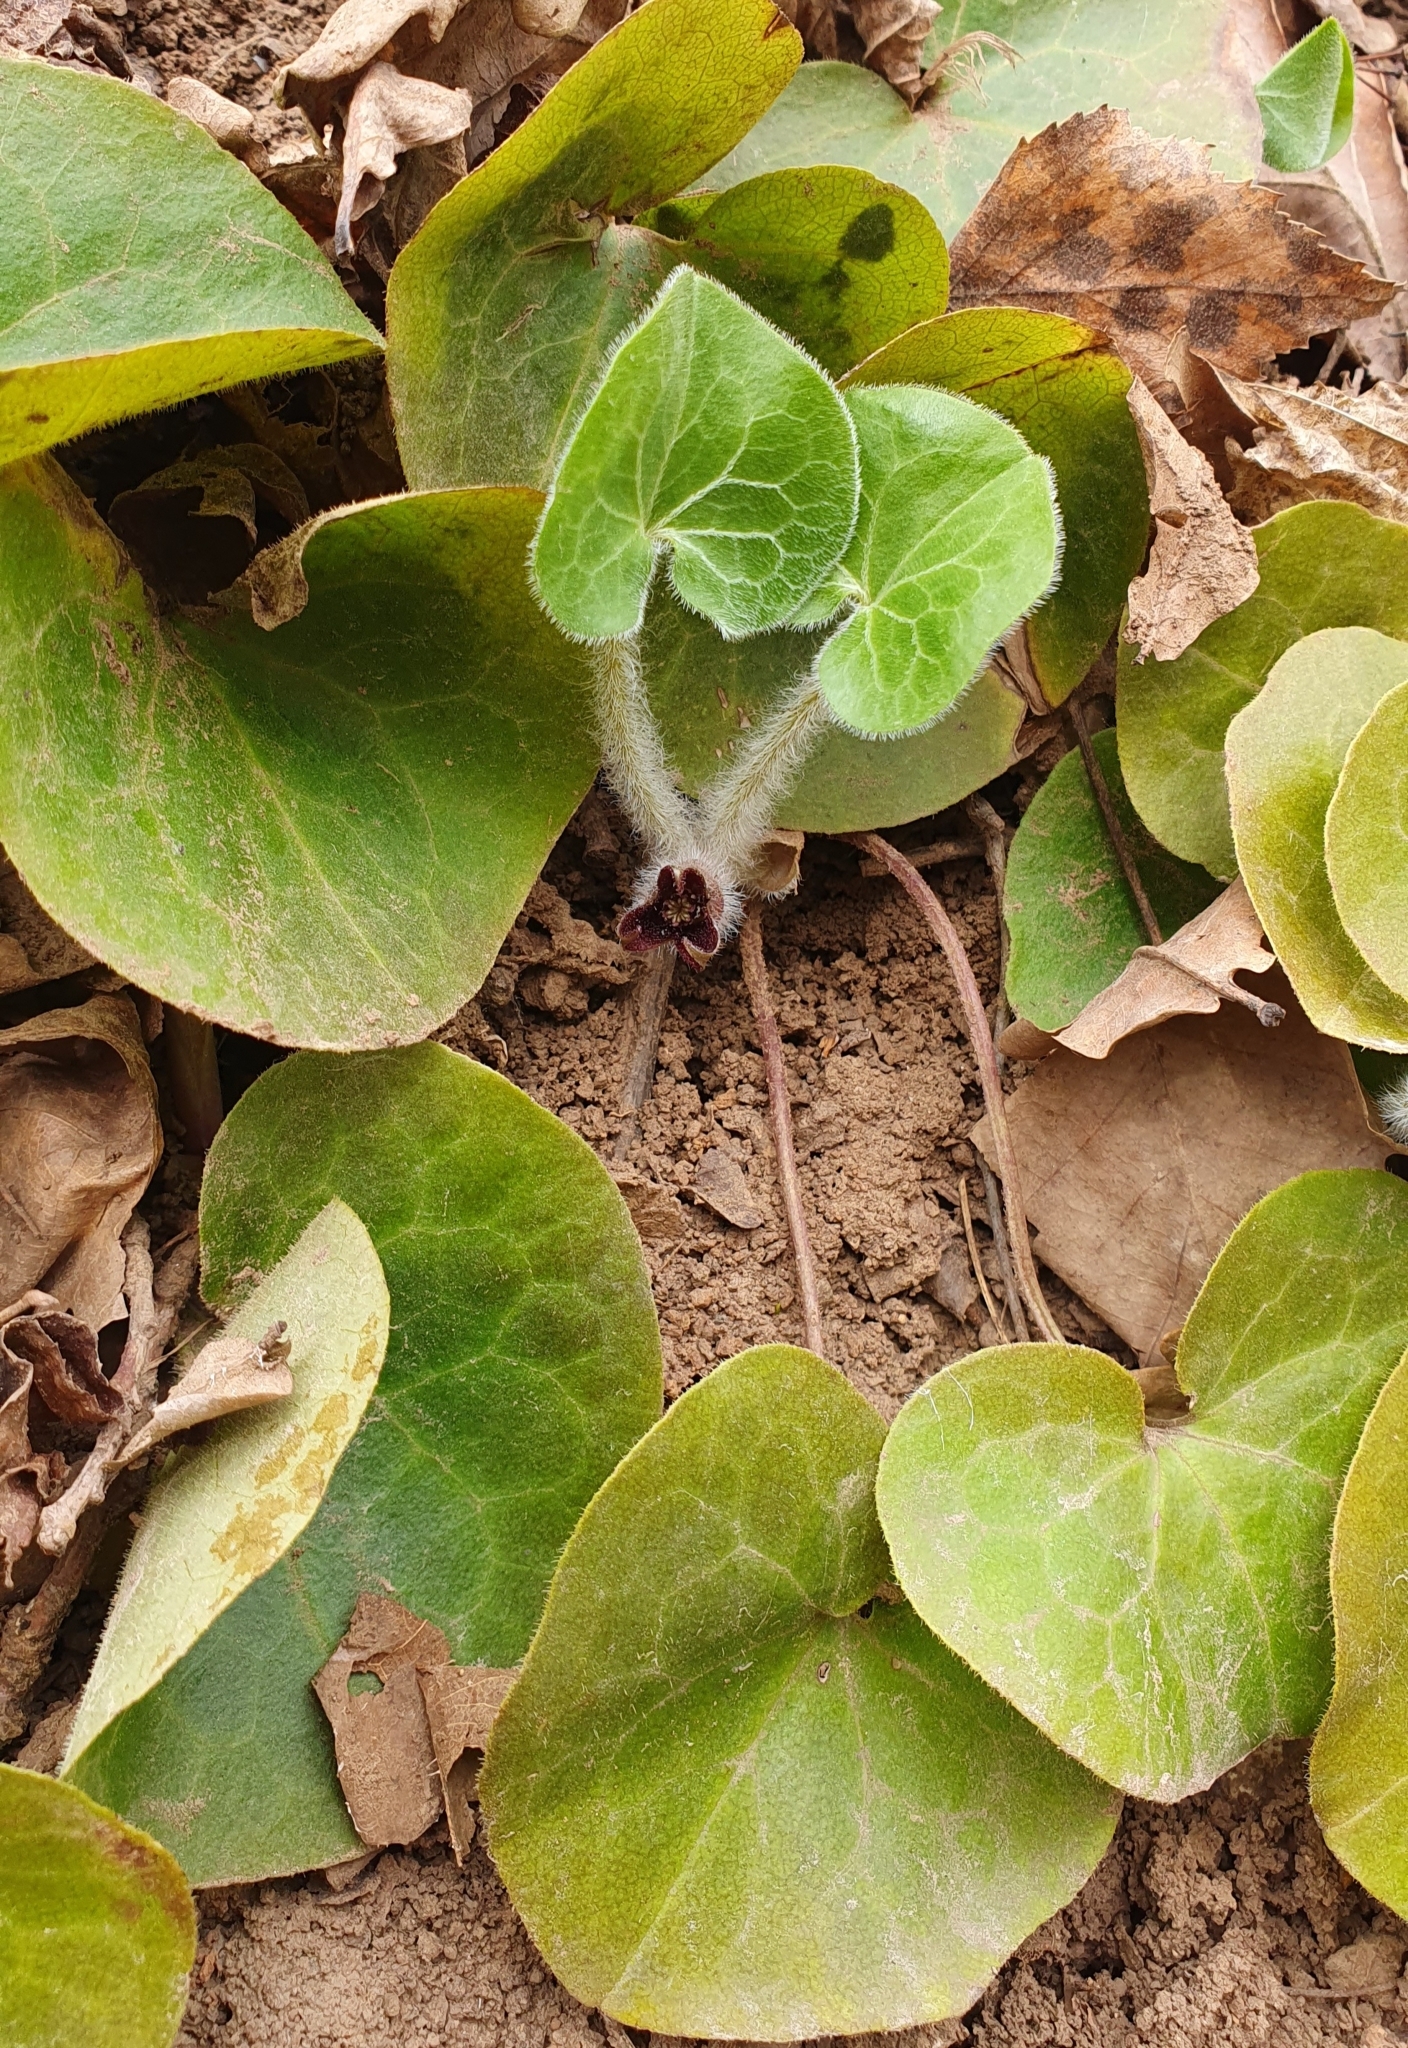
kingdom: Plantae
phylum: Tracheophyta
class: Magnoliopsida
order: Piperales
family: Aristolochiaceae
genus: Asarum
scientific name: Asarum europaeum
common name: Asarabacca
